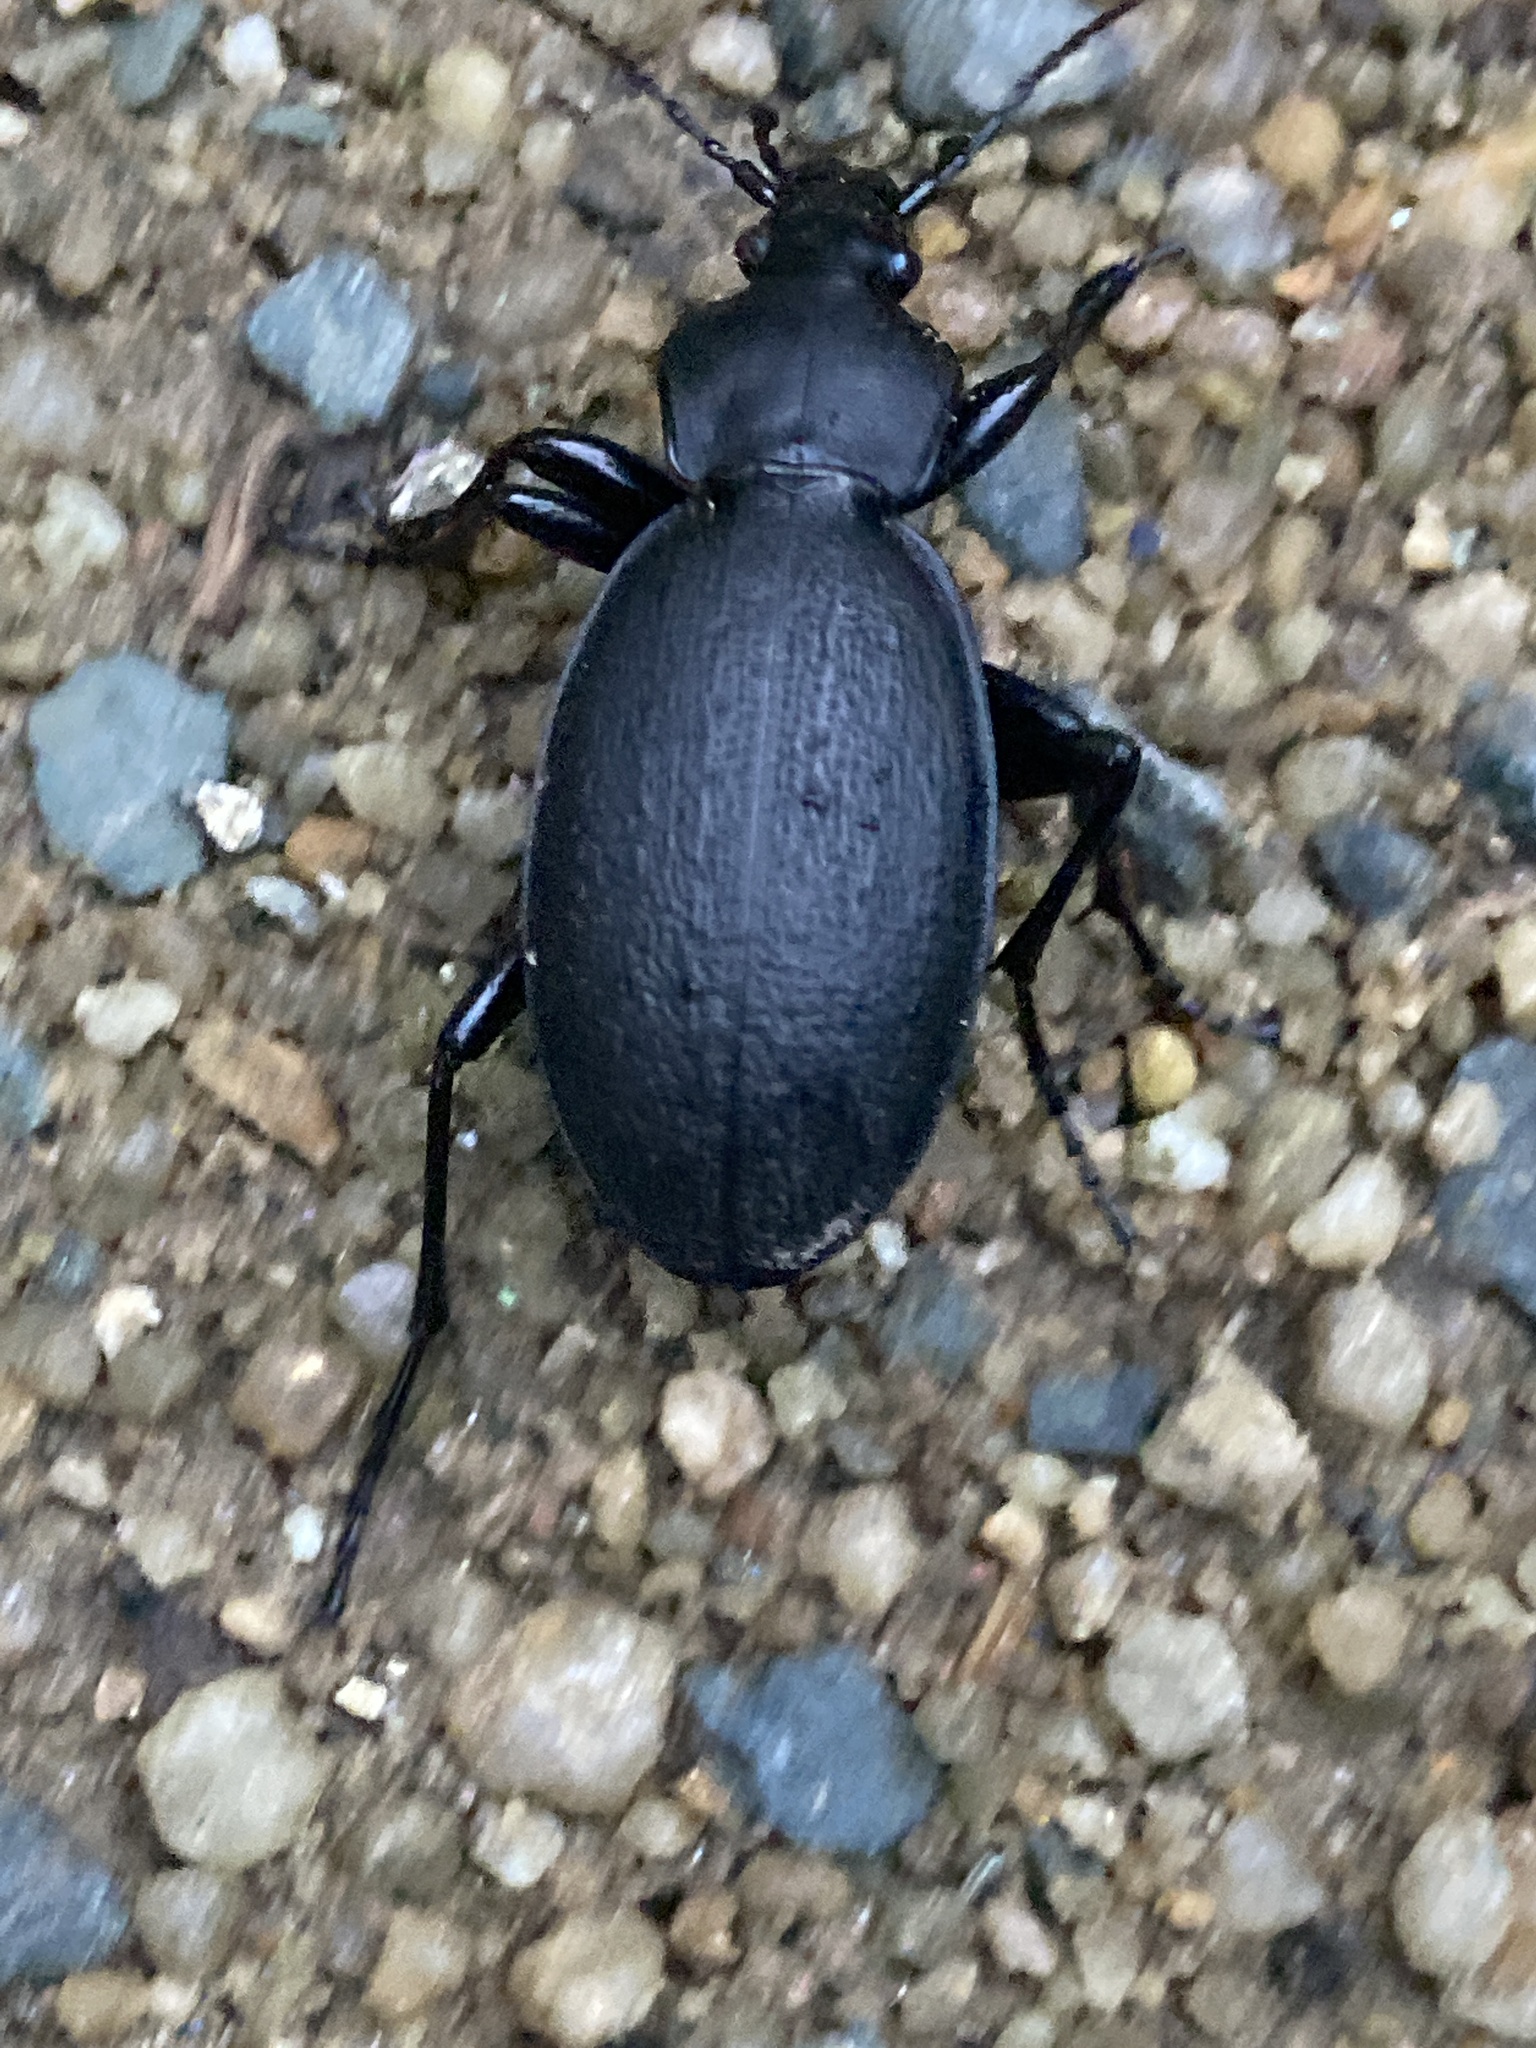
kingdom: Animalia
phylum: Arthropoda
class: Insecta
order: Coleoptera
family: Carabidae
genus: Carabus
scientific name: Carabus coriaceus
